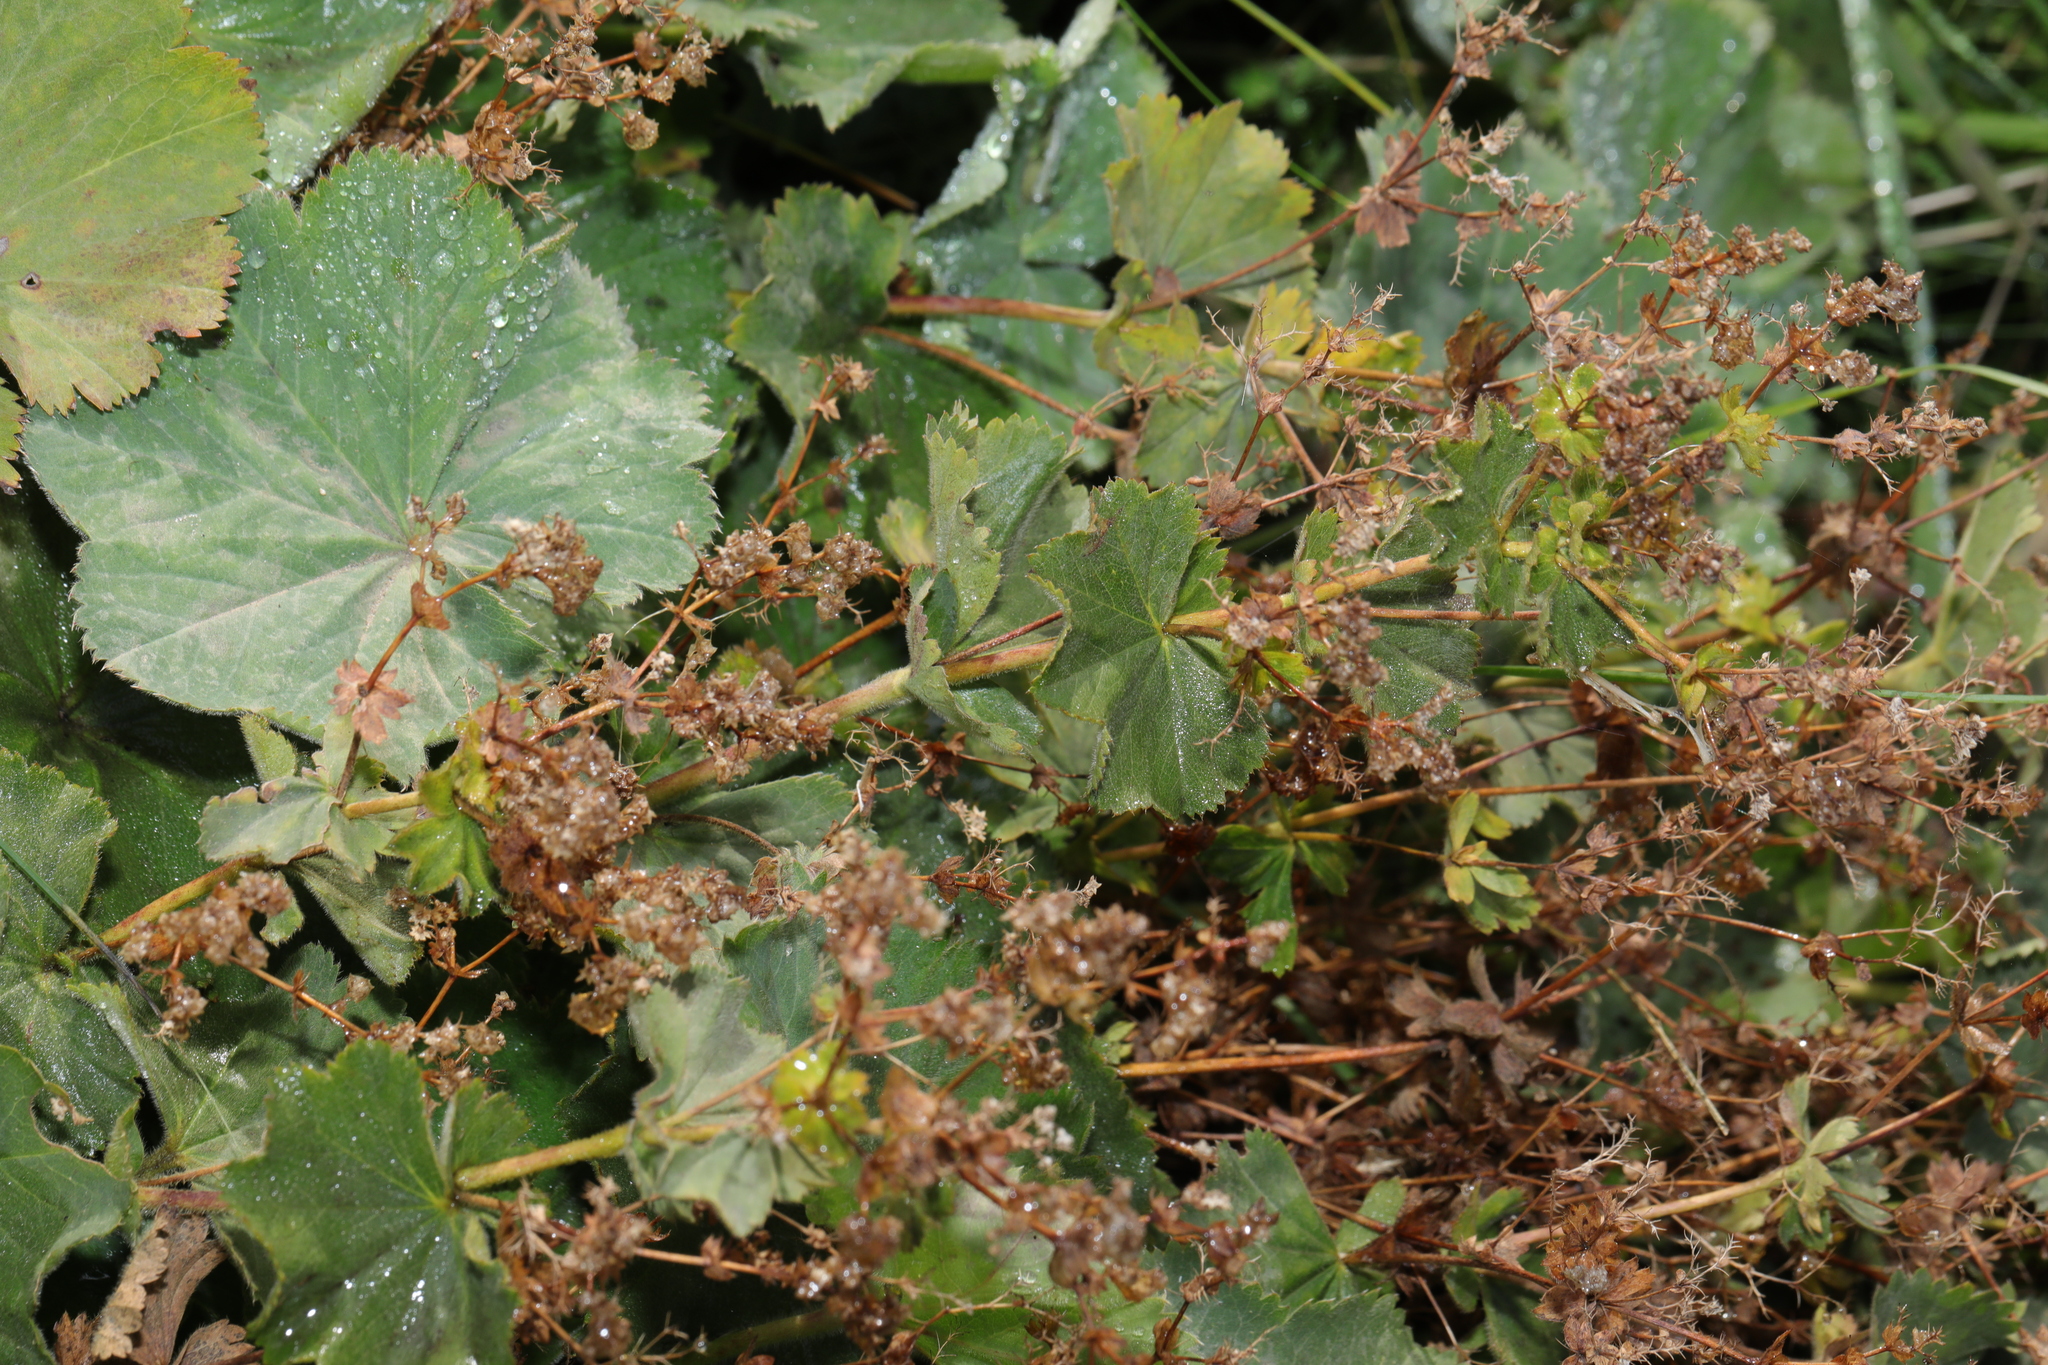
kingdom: Plantae
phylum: Tracheophyta
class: Magnoliopsida
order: Rosales
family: Rosaceae
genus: Alchemilla
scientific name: Alchemilla mollis
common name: Lady's-mantle
